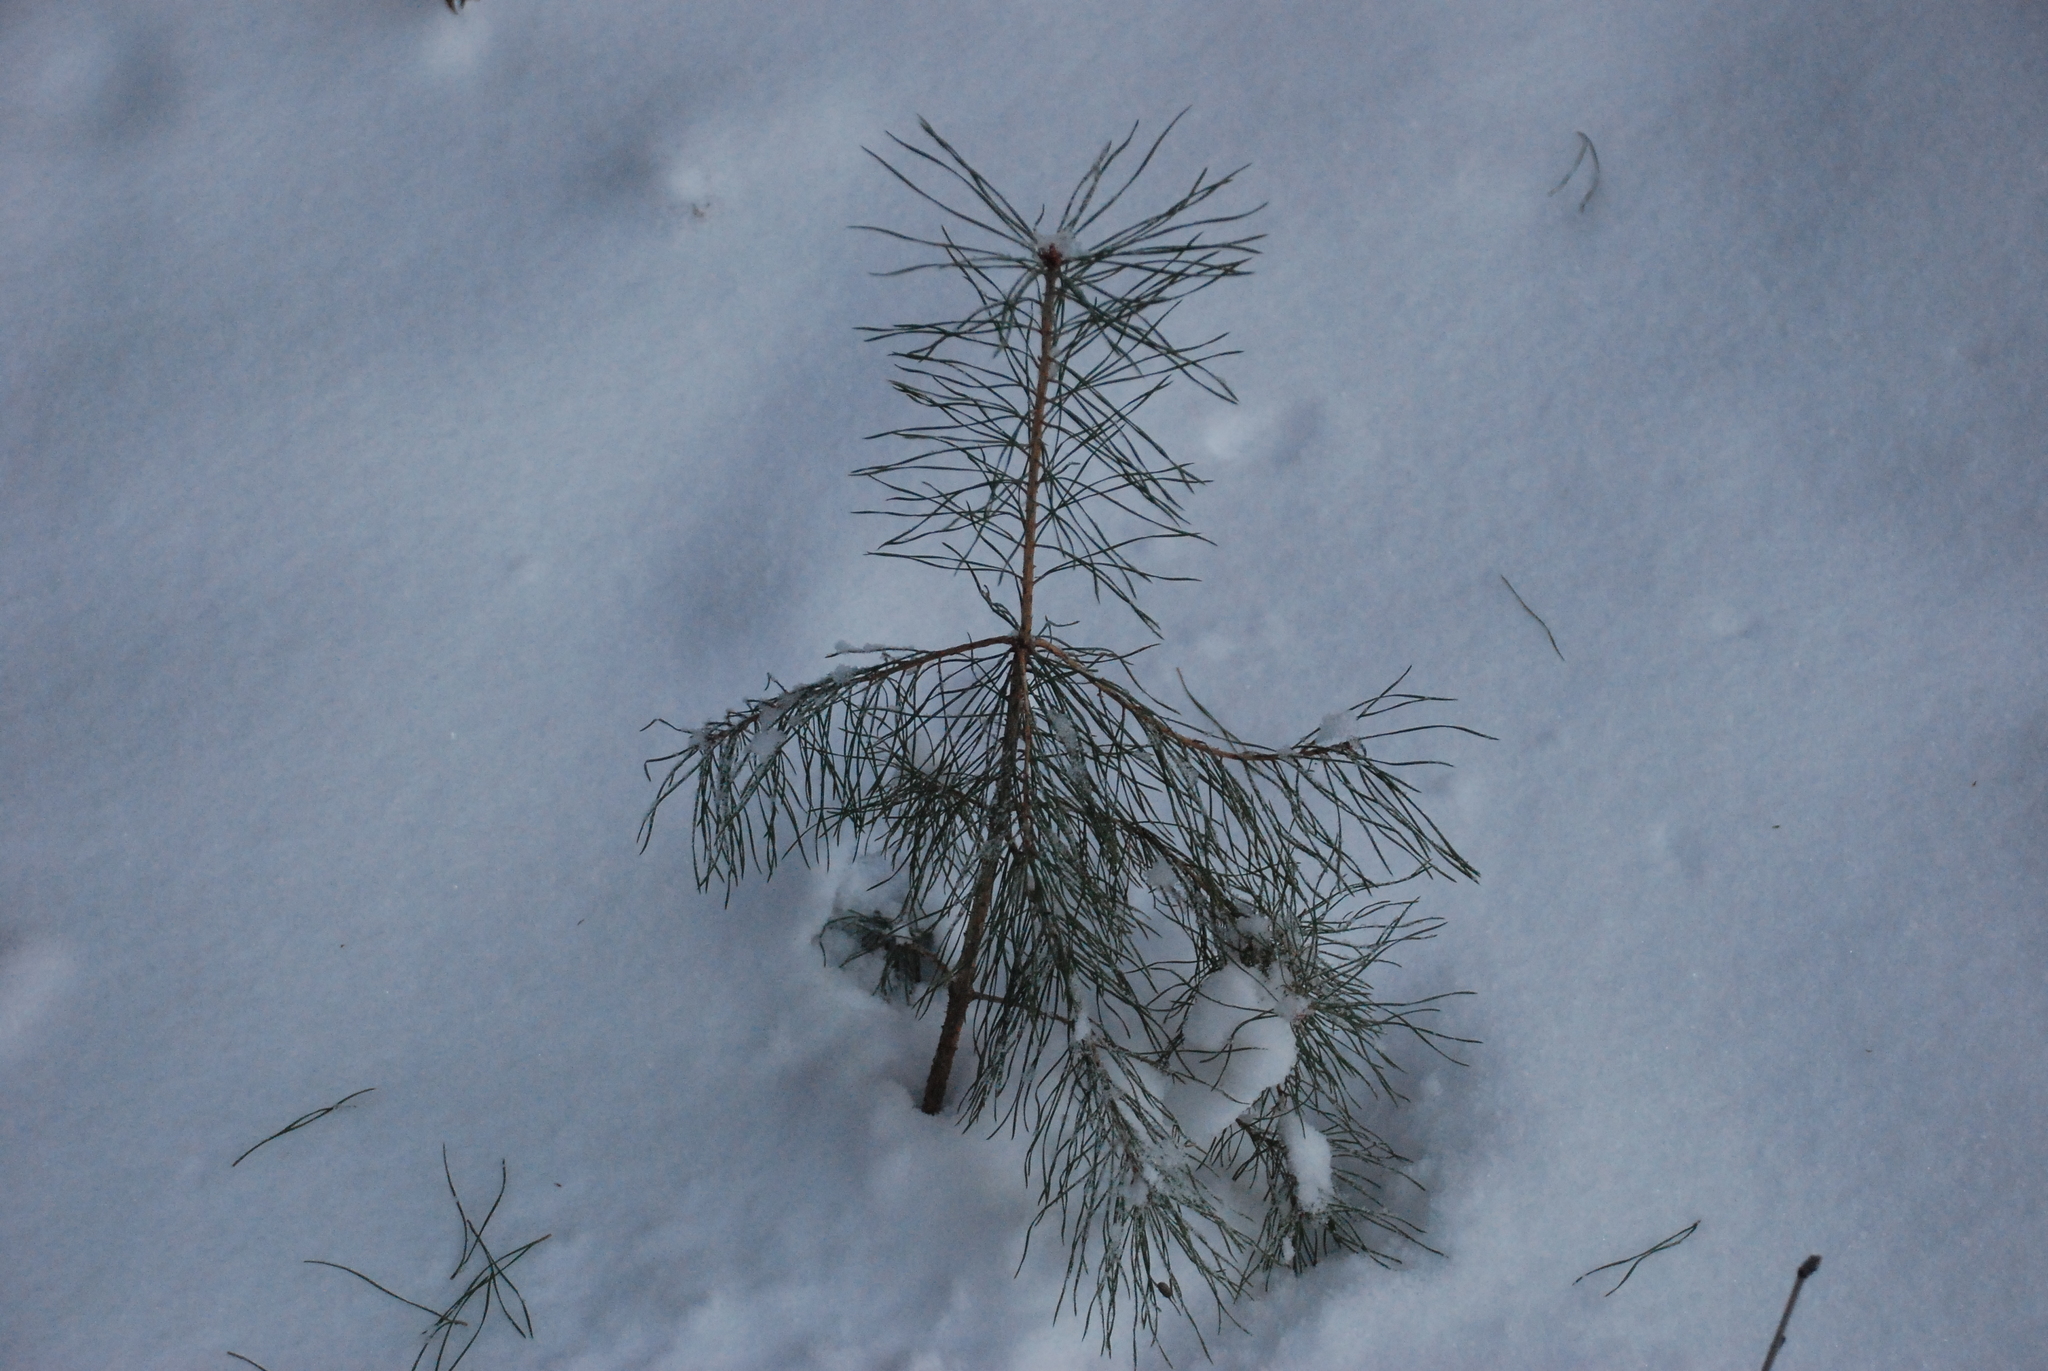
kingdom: Plantae
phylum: Tracheophyta
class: Pinopsida
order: Pinales
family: Pinaceae
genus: Pinus
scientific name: Pinus sylvestris
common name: Scots pine
